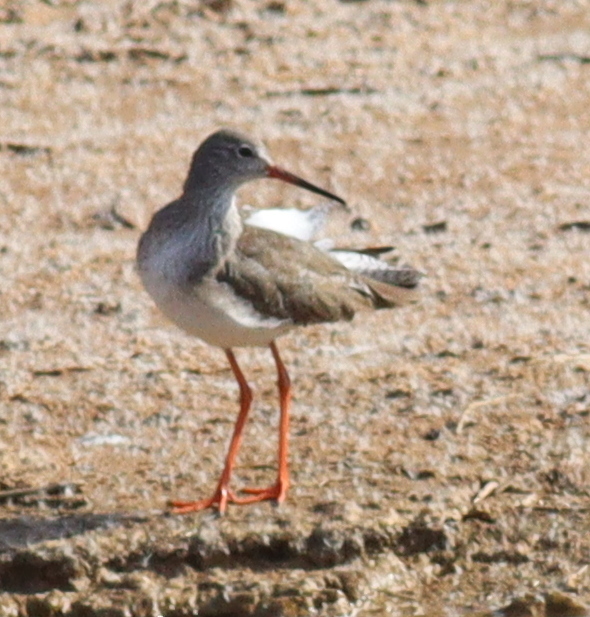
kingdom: Animalia
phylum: Chordata
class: Aves
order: Charadriiformes
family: Scolopacidae
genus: Tringa
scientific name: Tringa totanus
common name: Common redshank
